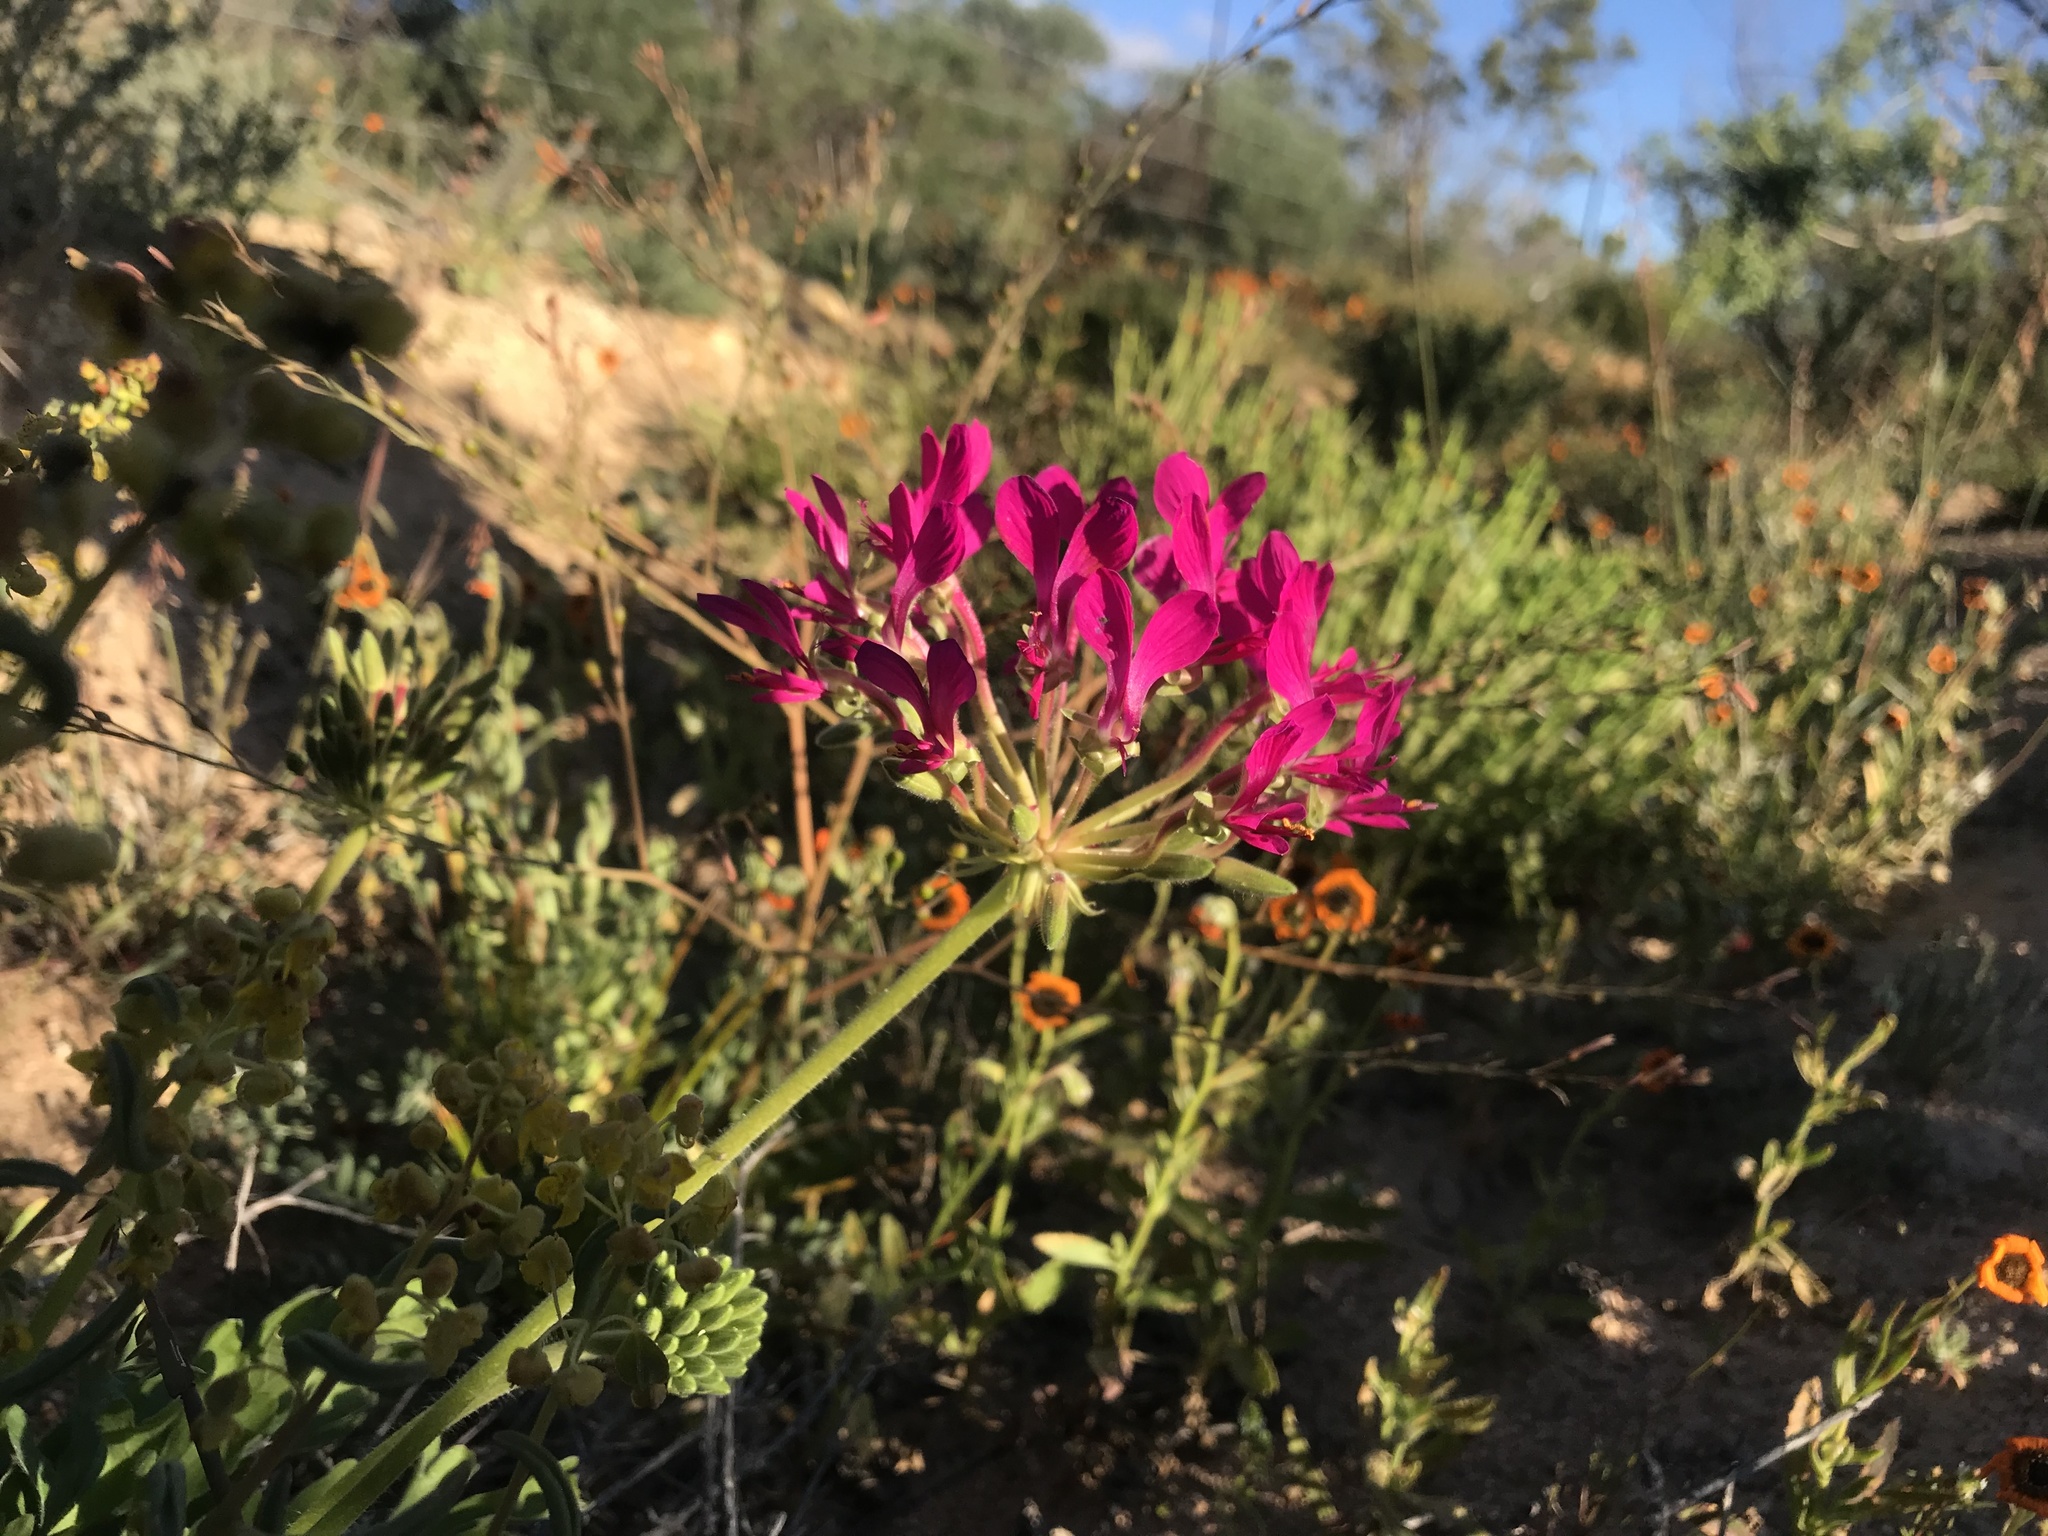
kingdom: Plantae
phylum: Tracheophyta
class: Magnoliopsida
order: Geraniales
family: Geraniaceae
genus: Pelargonium
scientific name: Pelargonium incrassatum
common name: Namaqualand beauty
